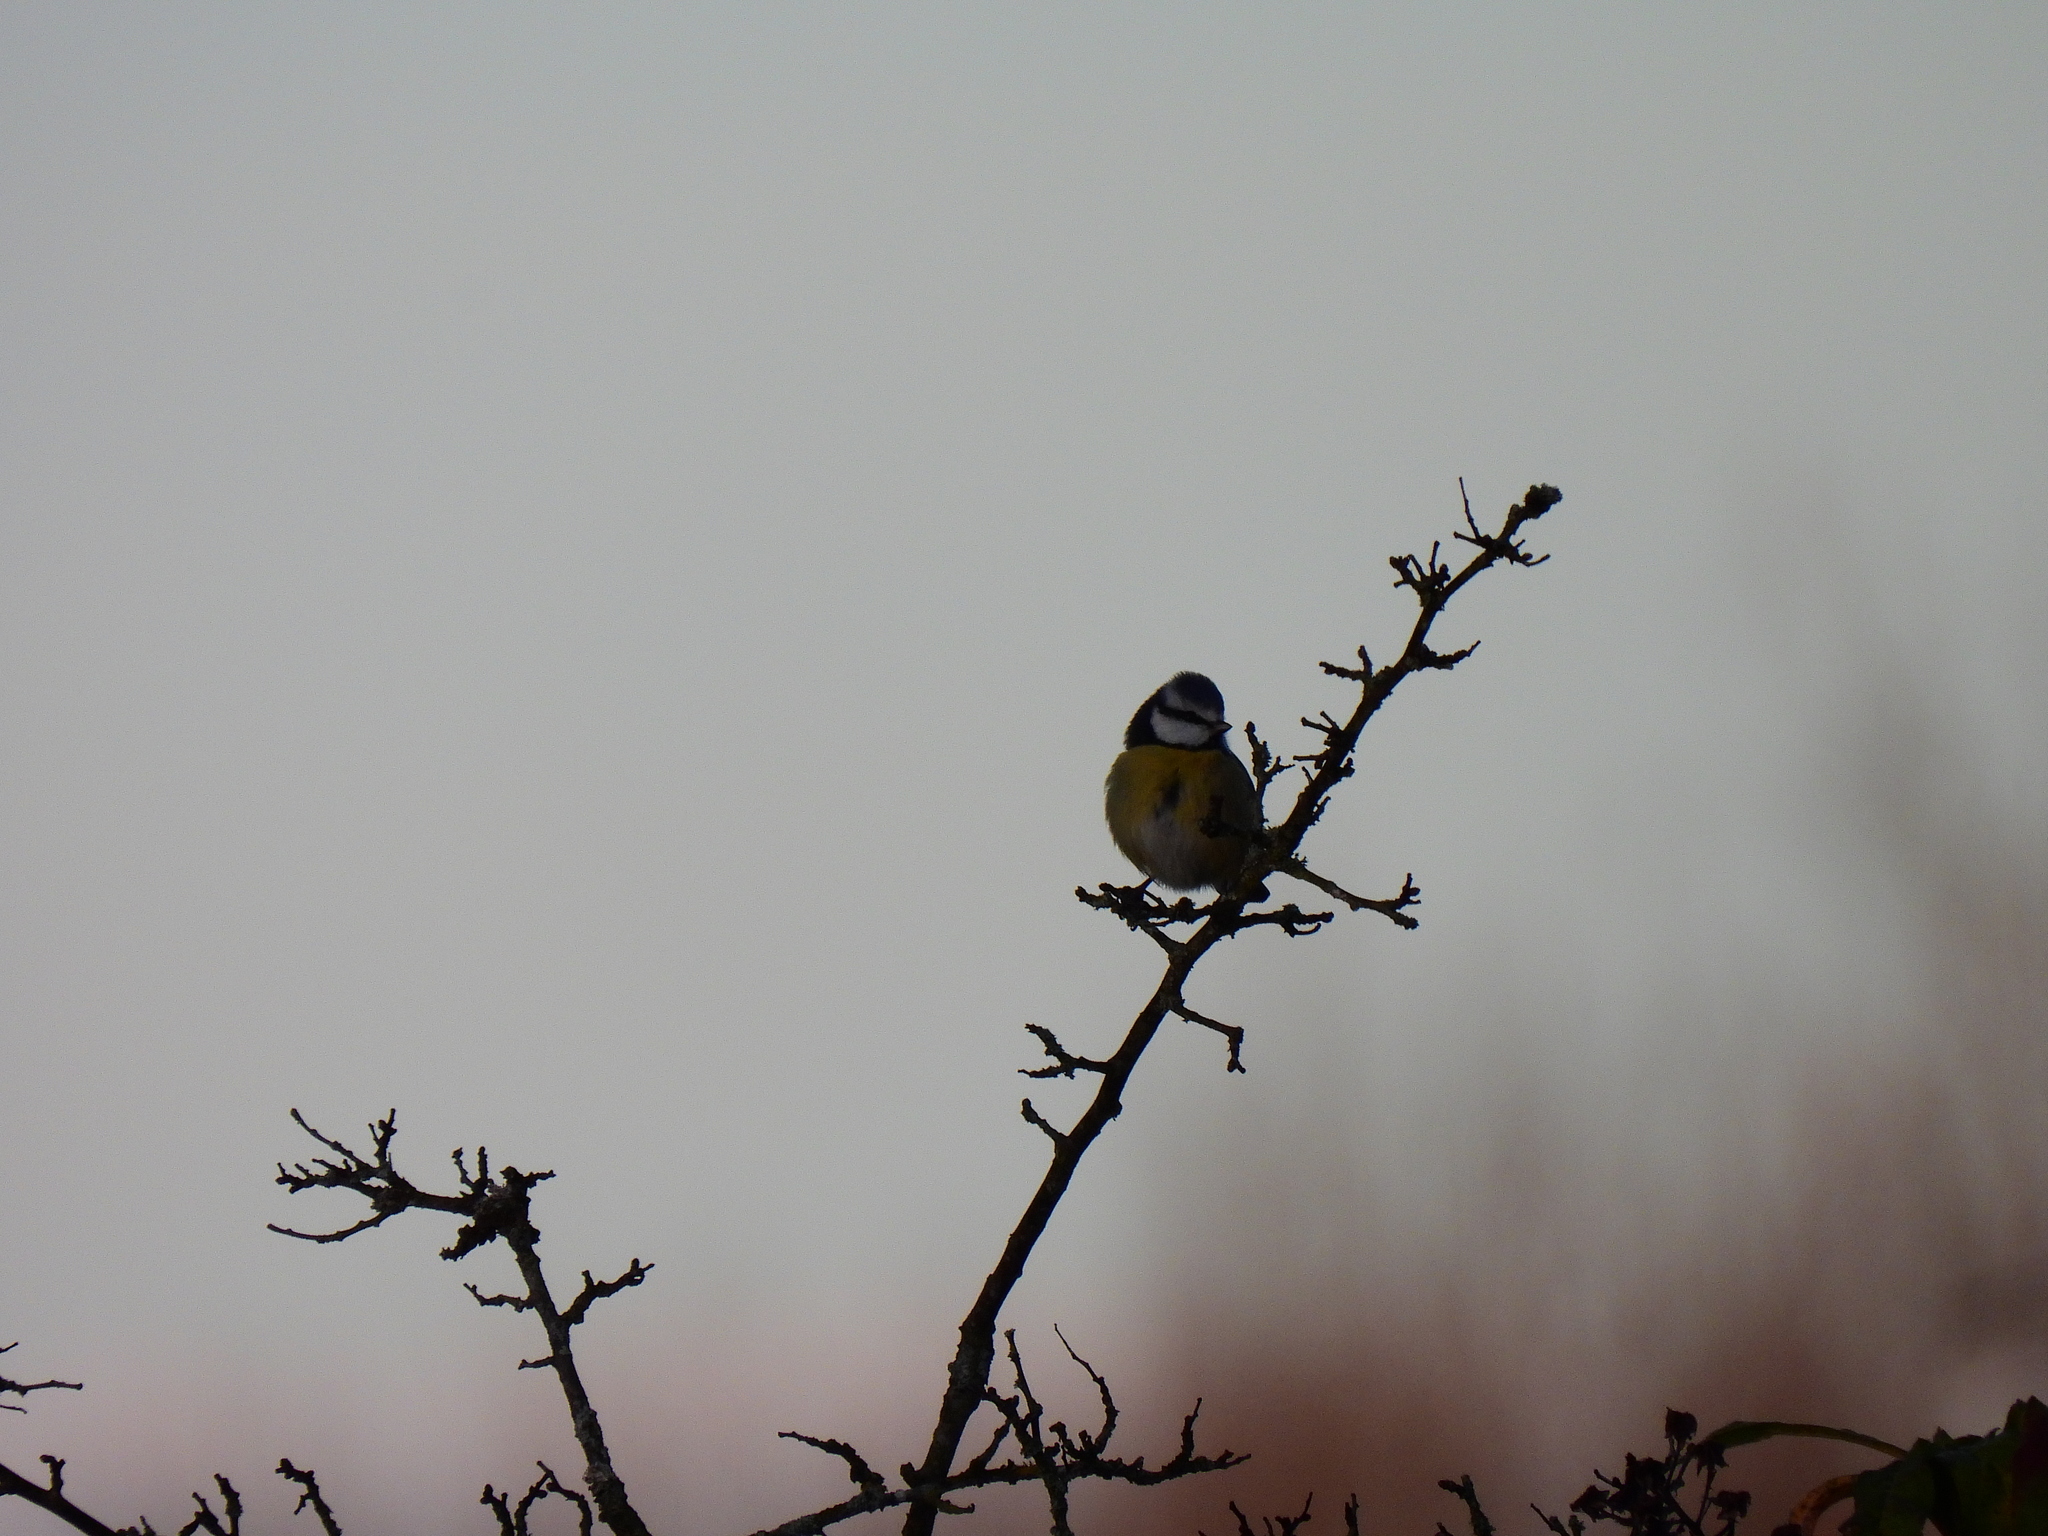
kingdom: Animalia
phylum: Chordata
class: Aves
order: Passeriformes
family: Paridae
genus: Cyanistes
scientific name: Cyanistes caeruleus
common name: Eurasian blue tit
